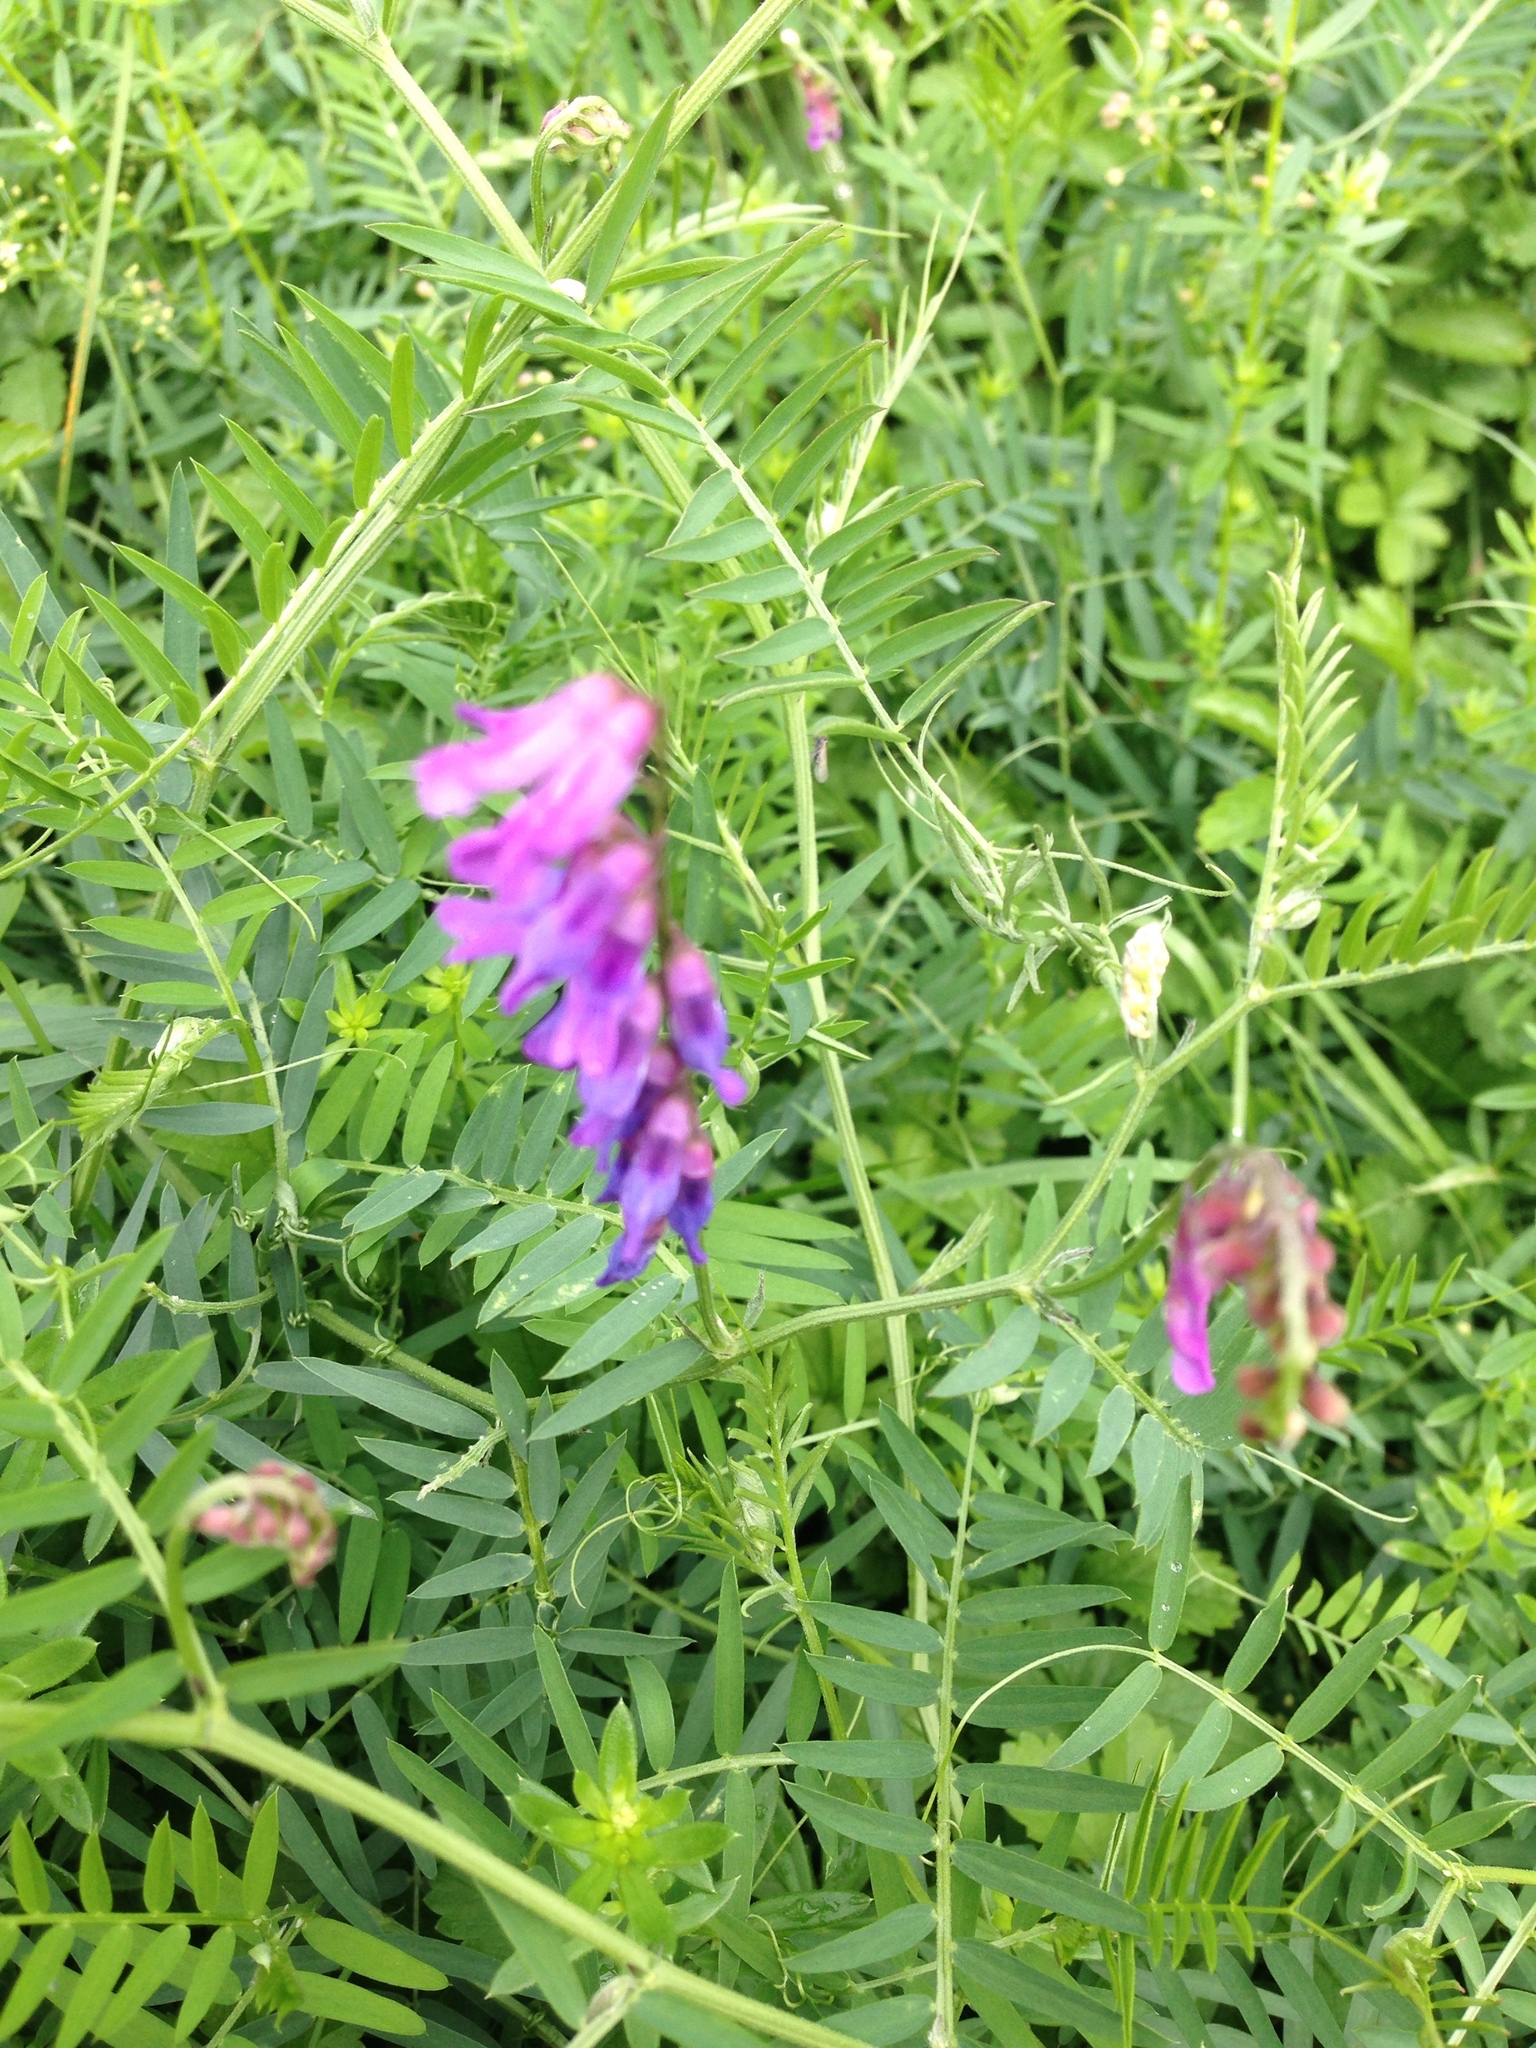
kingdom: Plantae
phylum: Tracheophyta
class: Magnoliopsida
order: Fabales
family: Fabaceae
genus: Vicia
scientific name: Vicia cracca
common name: Bird vetch
